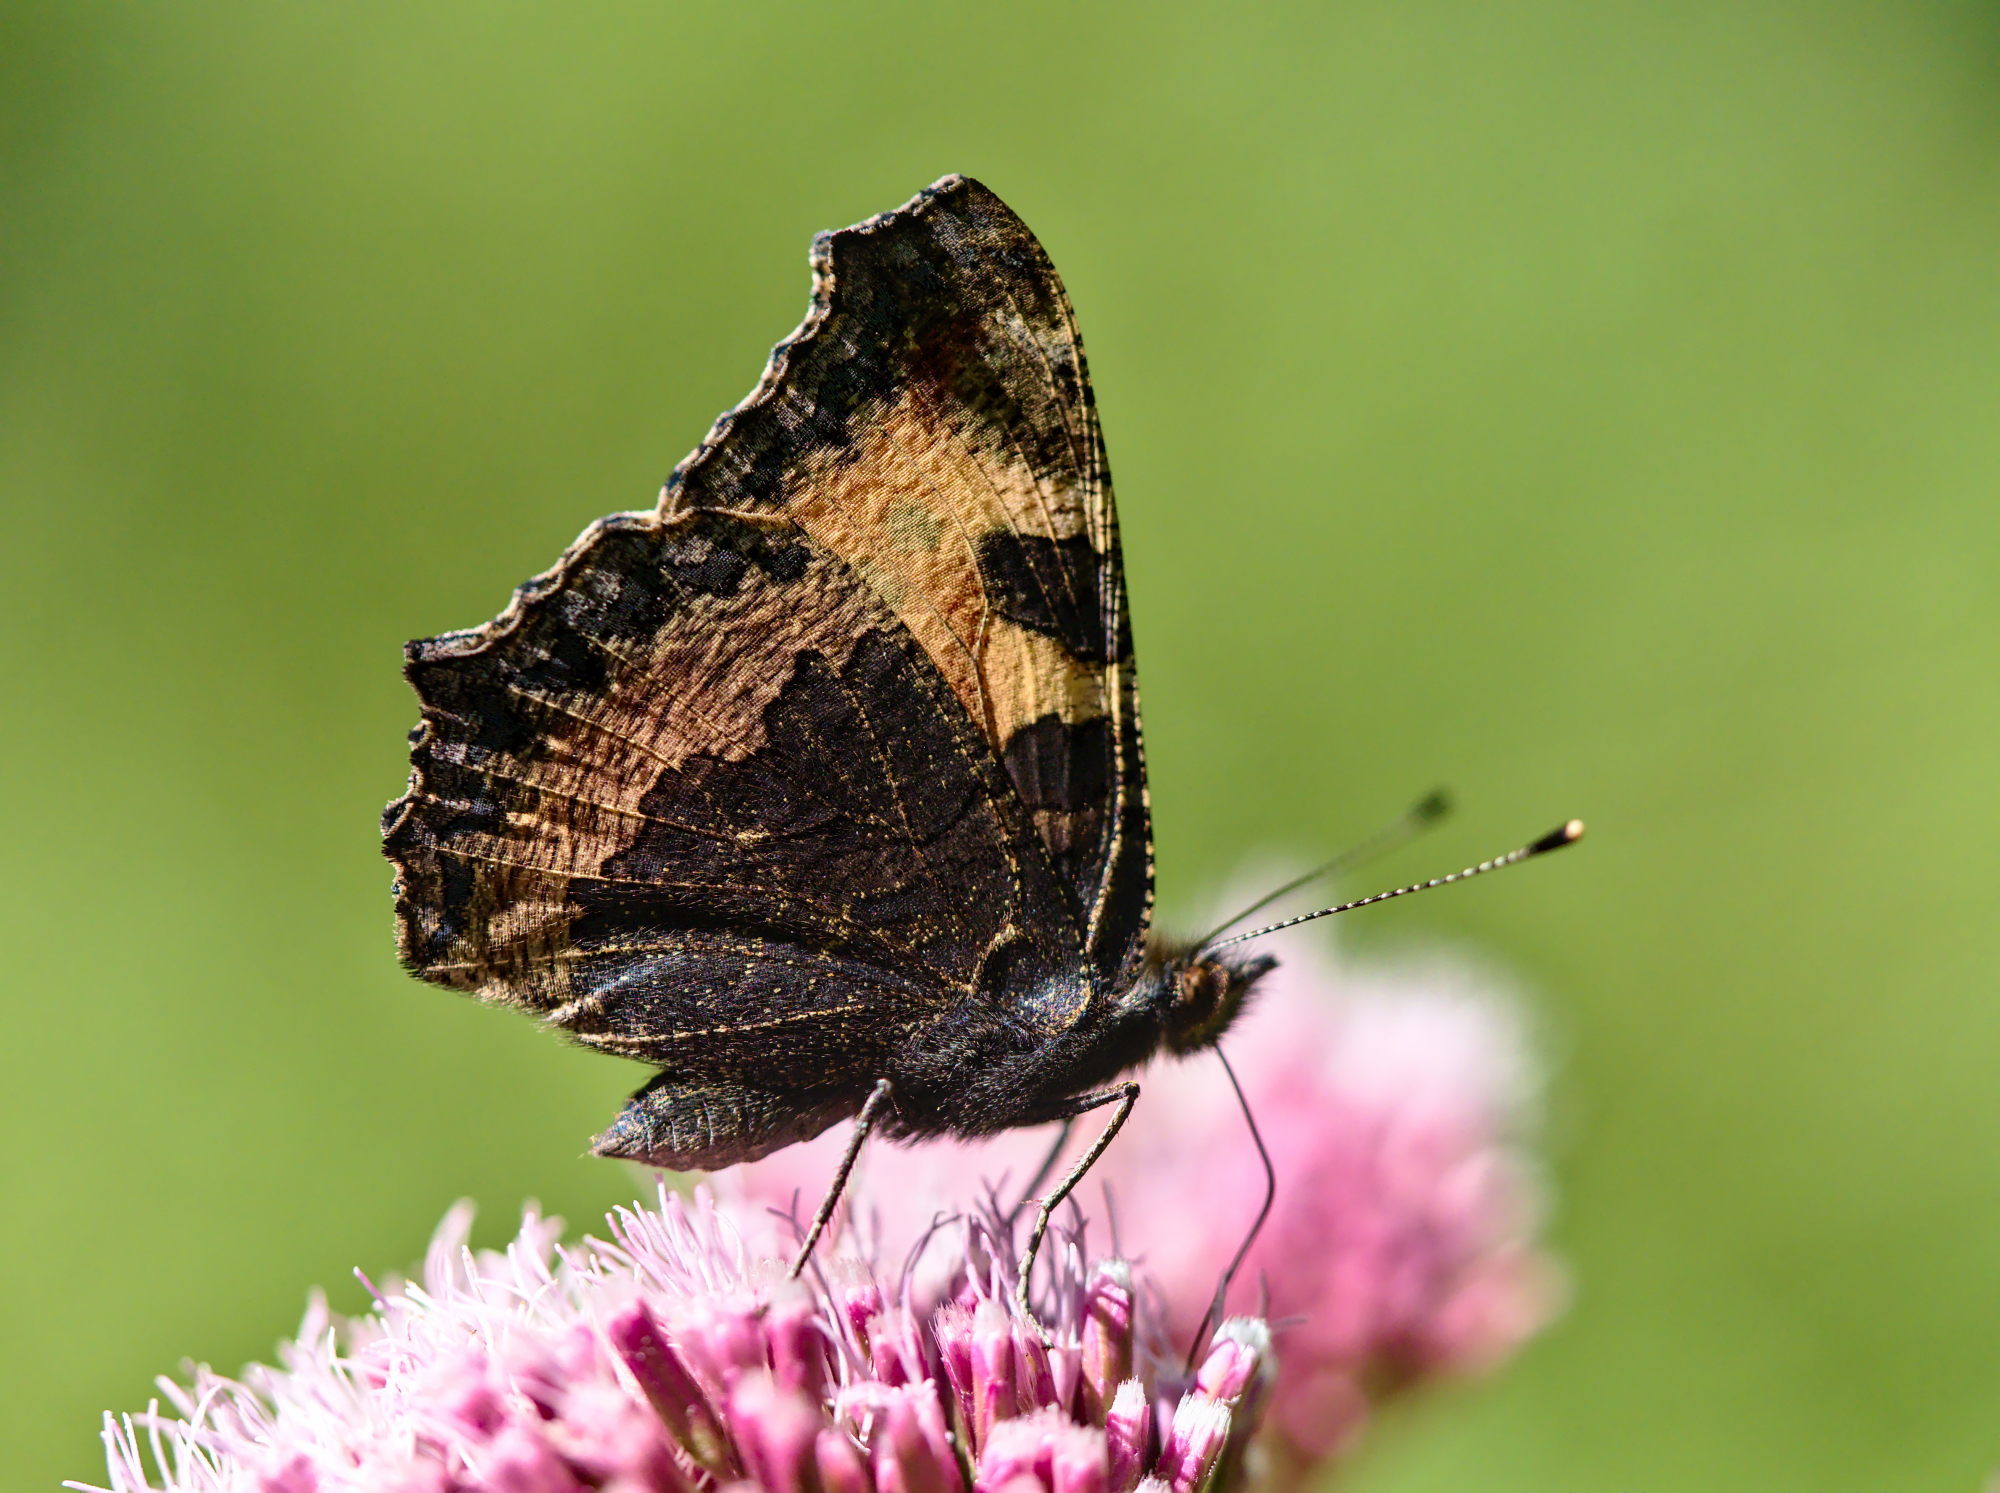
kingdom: Animalia
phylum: Arthropoda
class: Insecta
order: Lepidoptera
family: Nymphalidae
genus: Aglais
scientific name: Aglais urticae
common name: Small tortoiseshell
